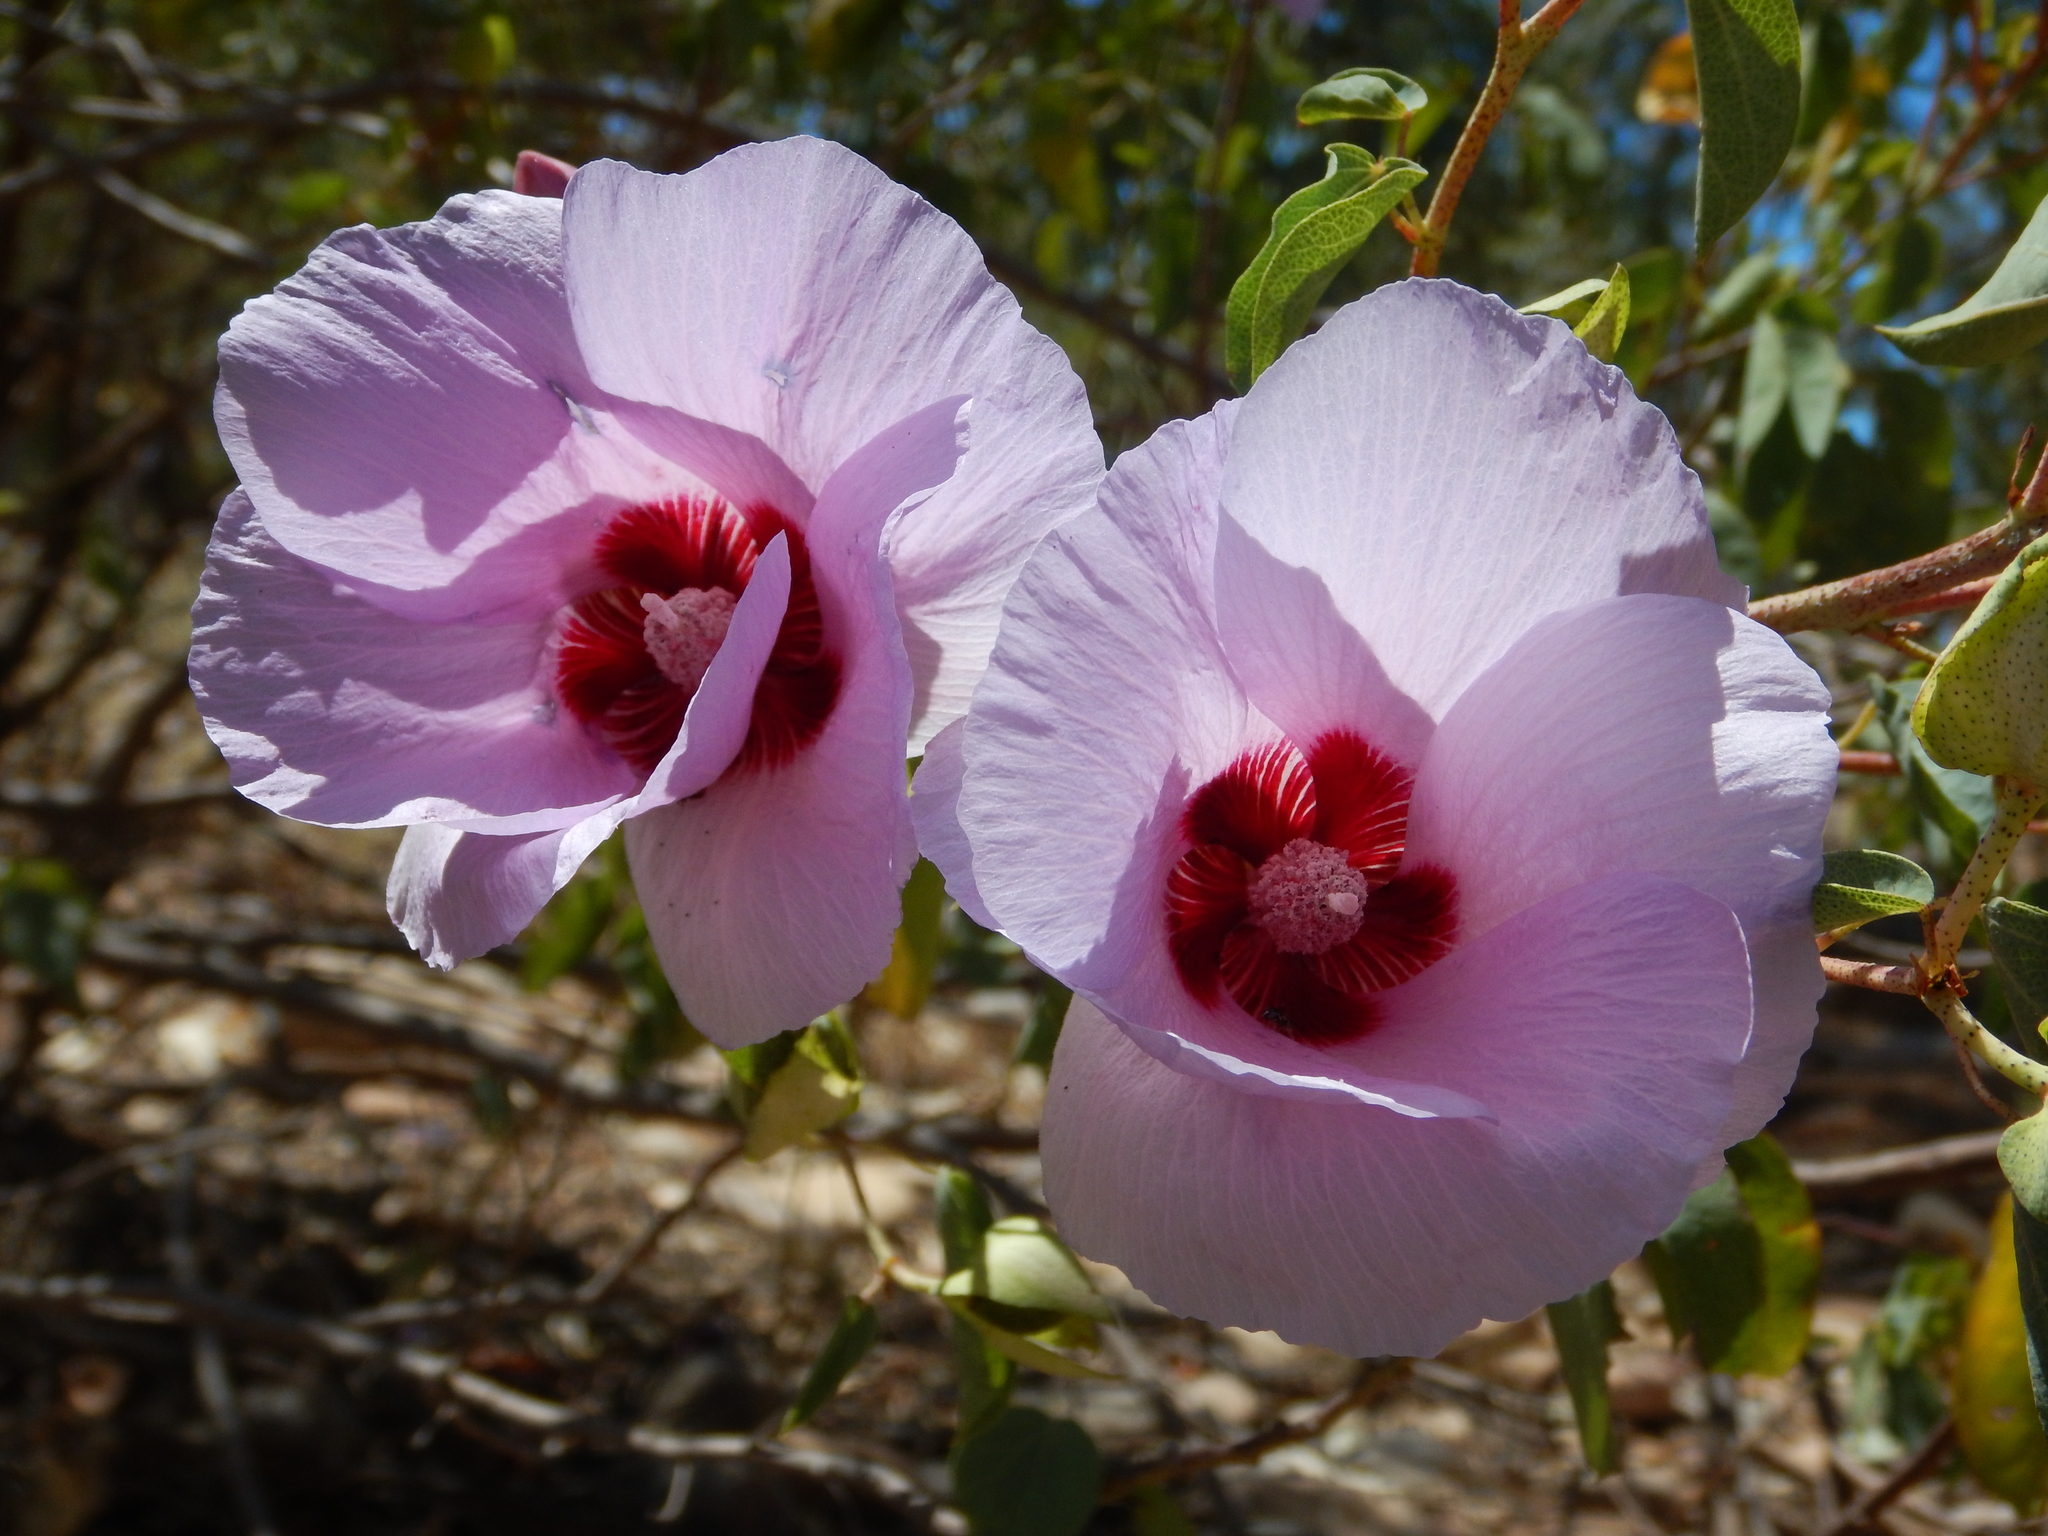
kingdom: Plantae
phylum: Tracheophyta
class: Magnoliopsida
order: Malvales
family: Malvaceae
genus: Gossypium
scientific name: Gossypium sturtianum
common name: Sturt's desert-rose
